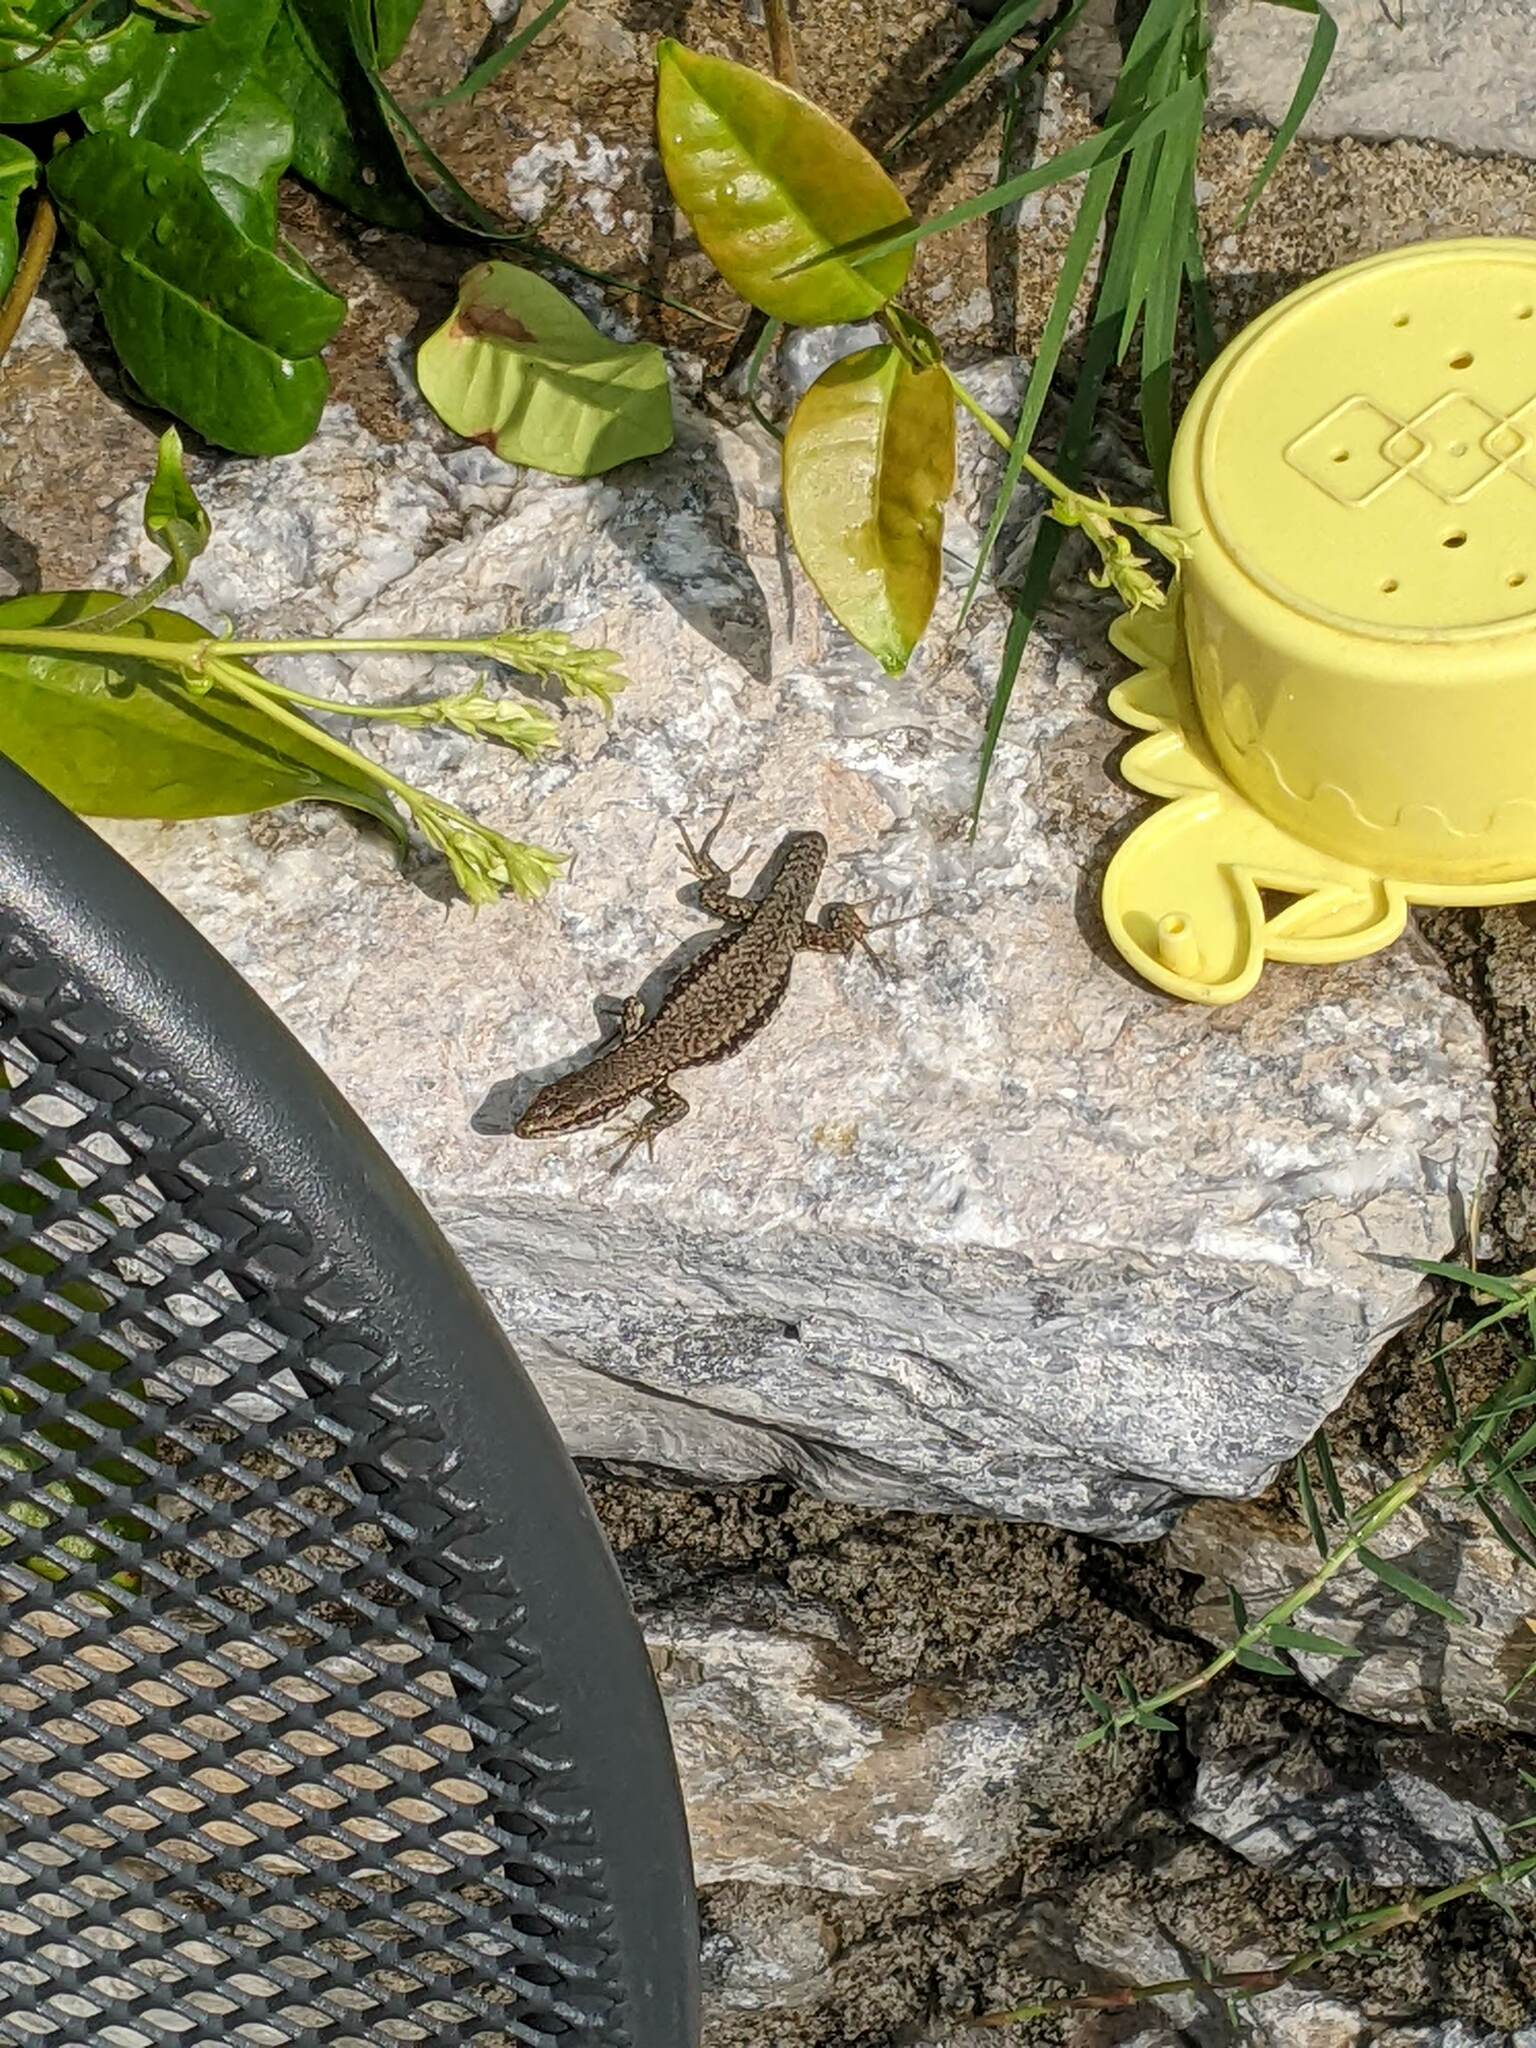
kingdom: Animalia
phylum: Chordata
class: Squamata
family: Lacertidae
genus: Podarcis
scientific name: Podarcis muralis
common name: Common wall lizard
